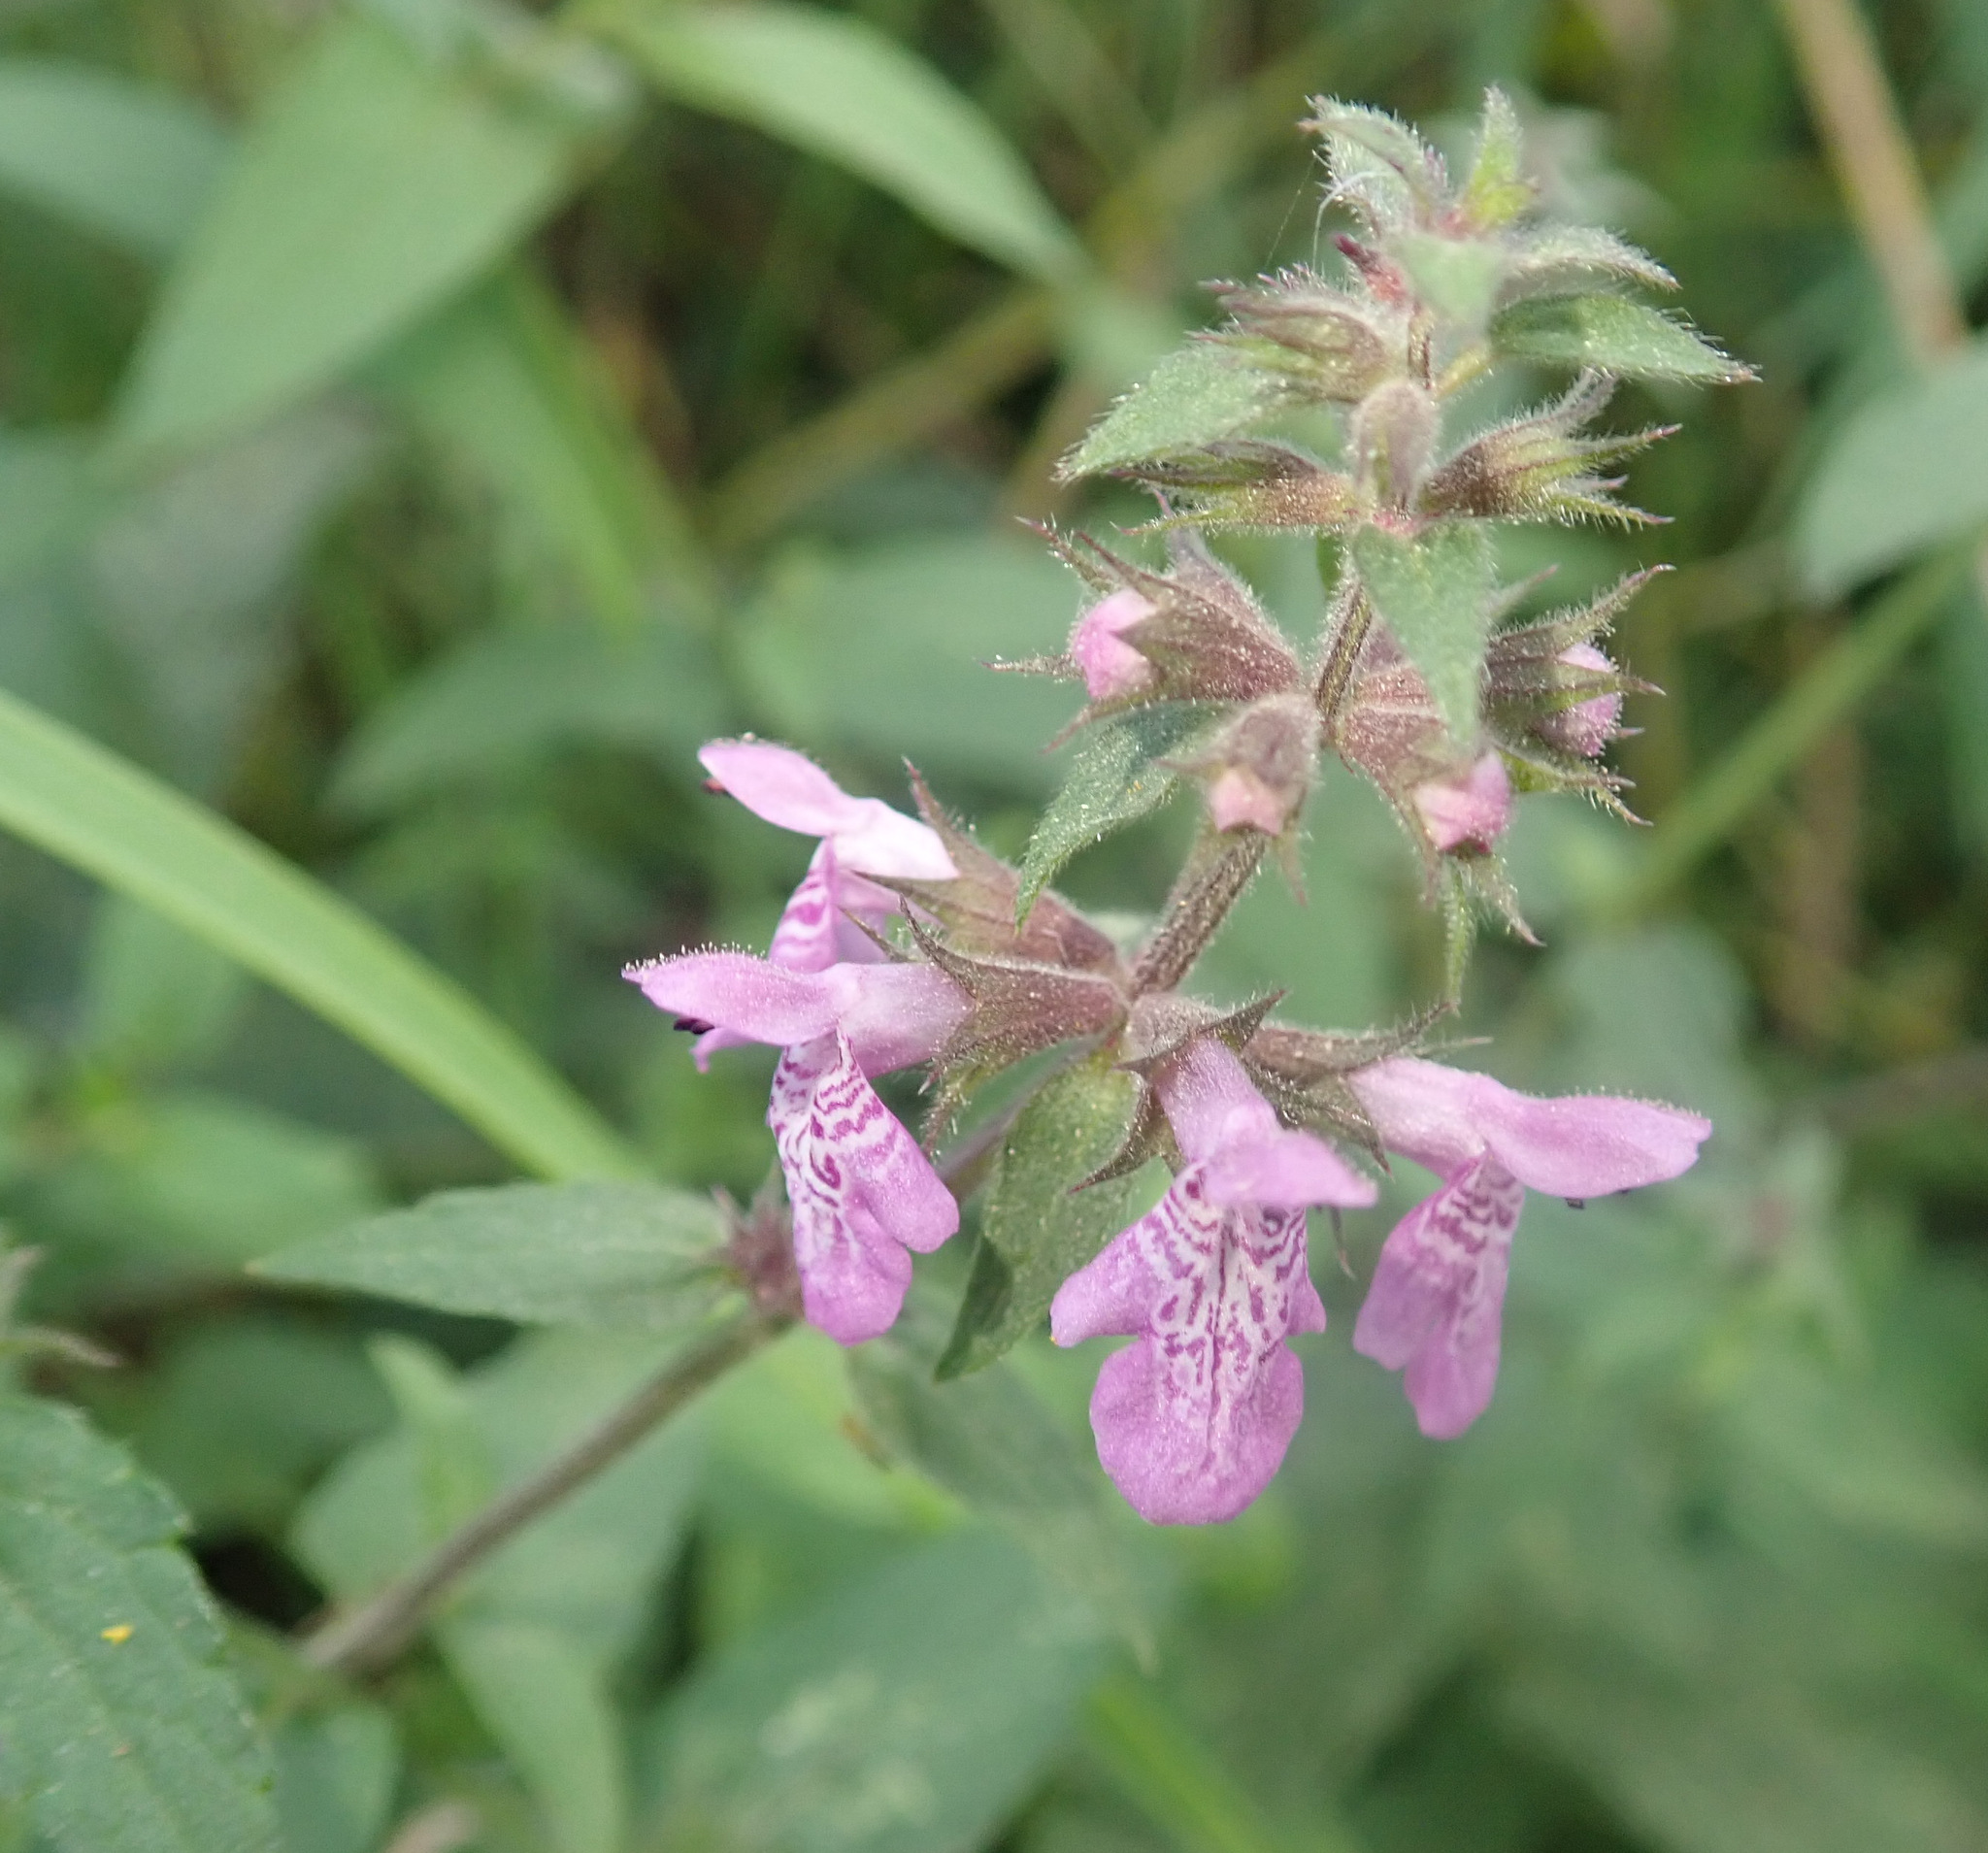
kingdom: Plantae
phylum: Tracheophyta
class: Magnoliopsida
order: Lamiales
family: Lamiaceae
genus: Stachys
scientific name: Stachys palustris
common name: Marsh woundwort
